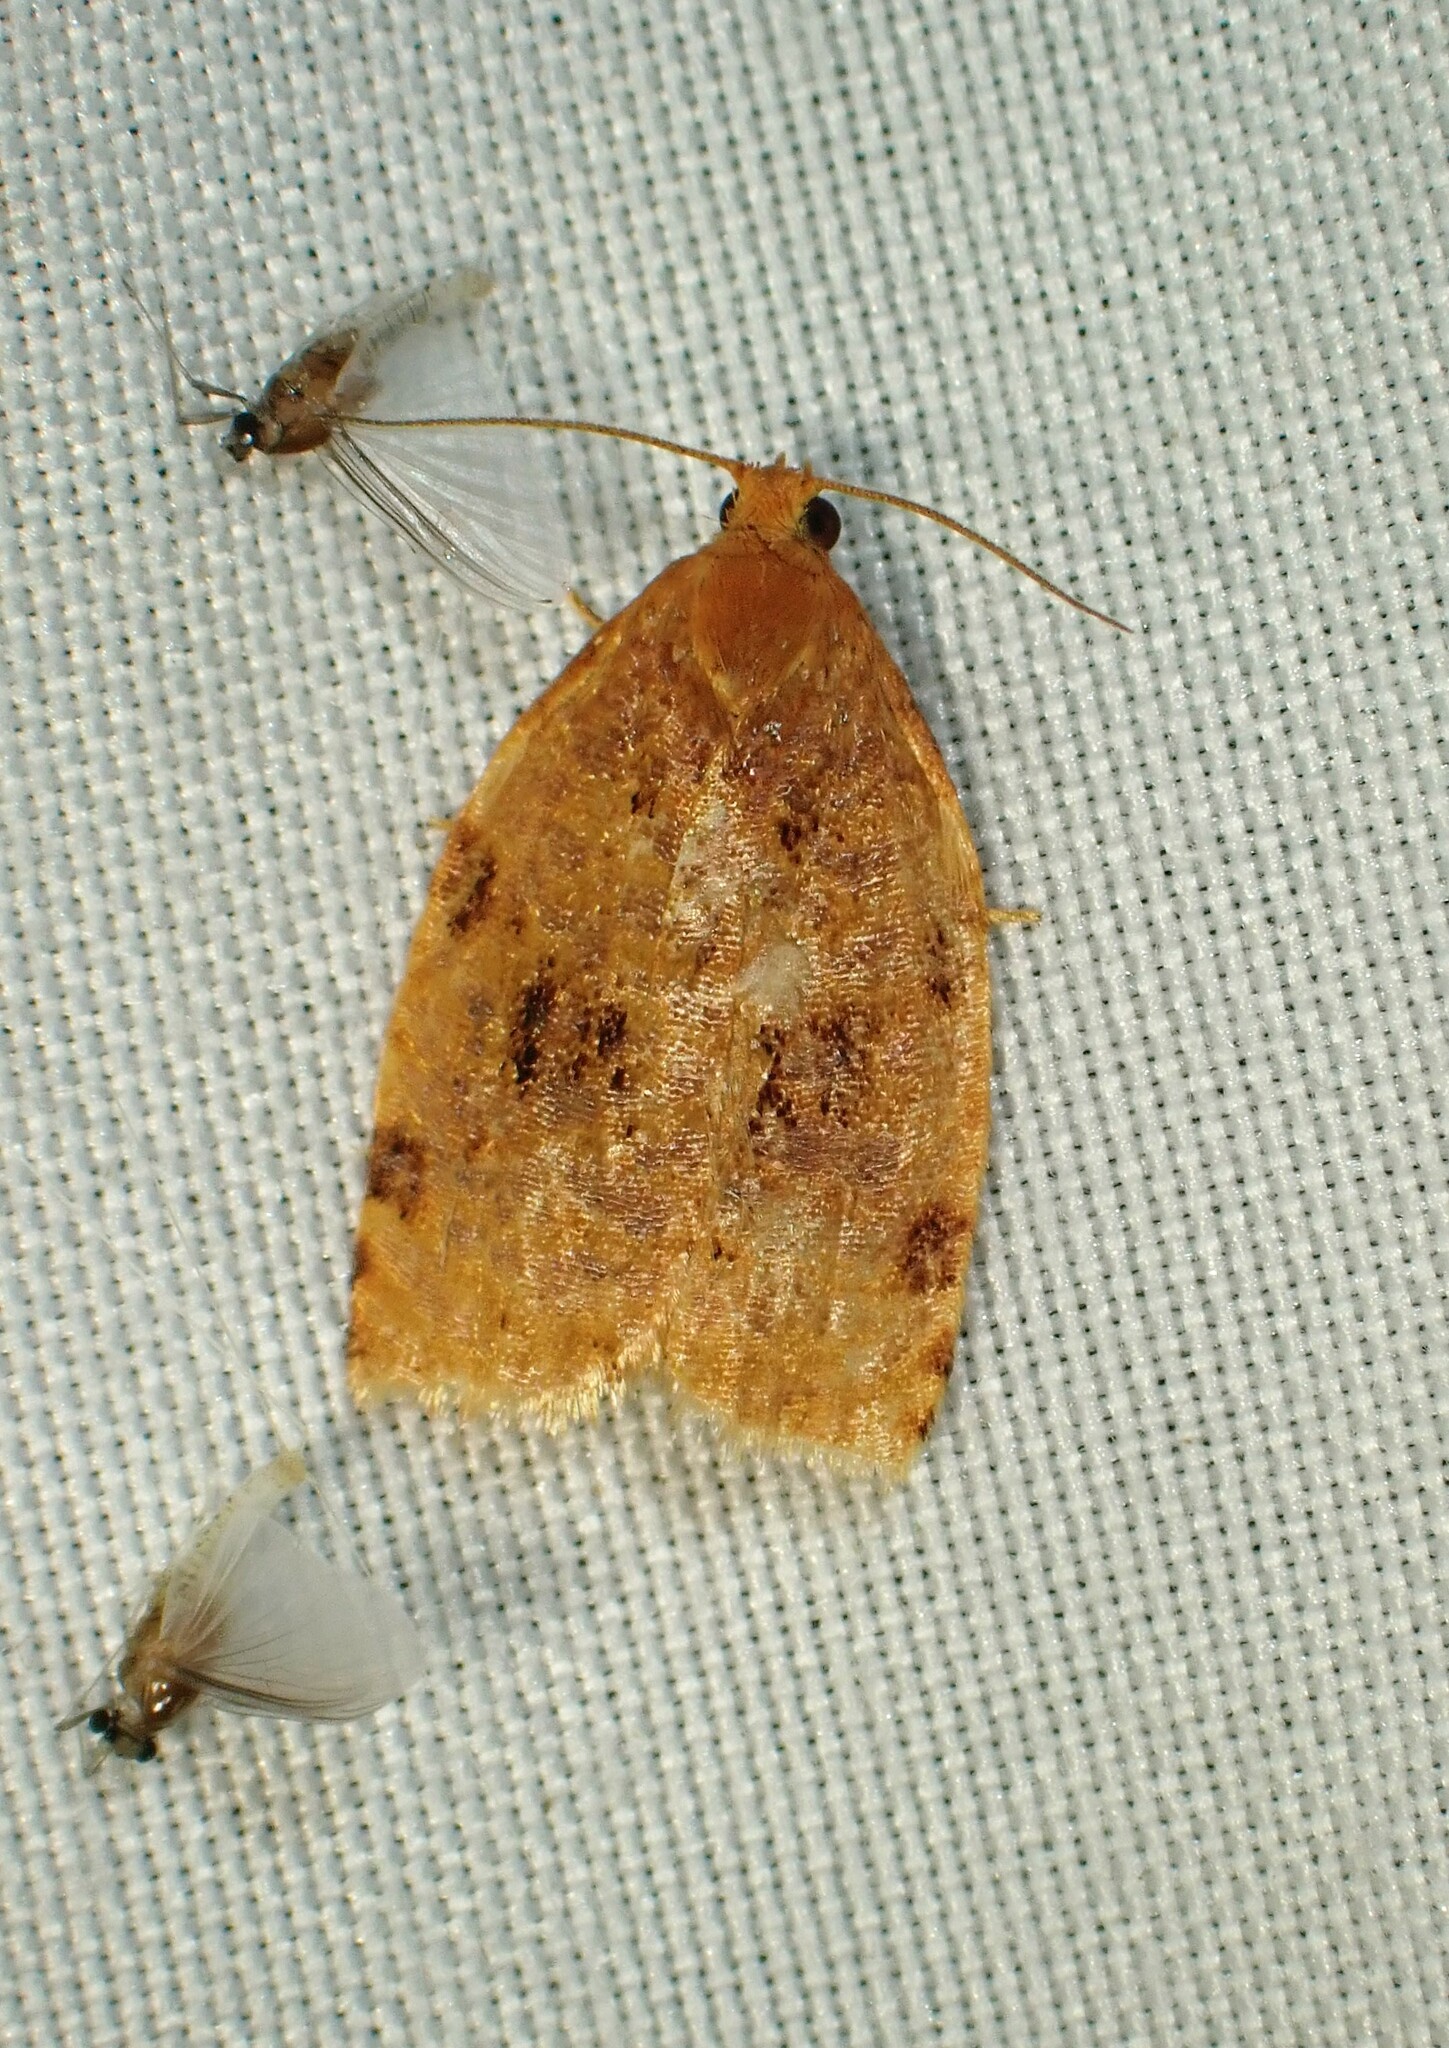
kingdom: Animalia
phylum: Arthropoda
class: Insecta
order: Lepidoptera
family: Tortricidae
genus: Archips
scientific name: Archips cerasivorana
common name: Uglynest caterpillar
